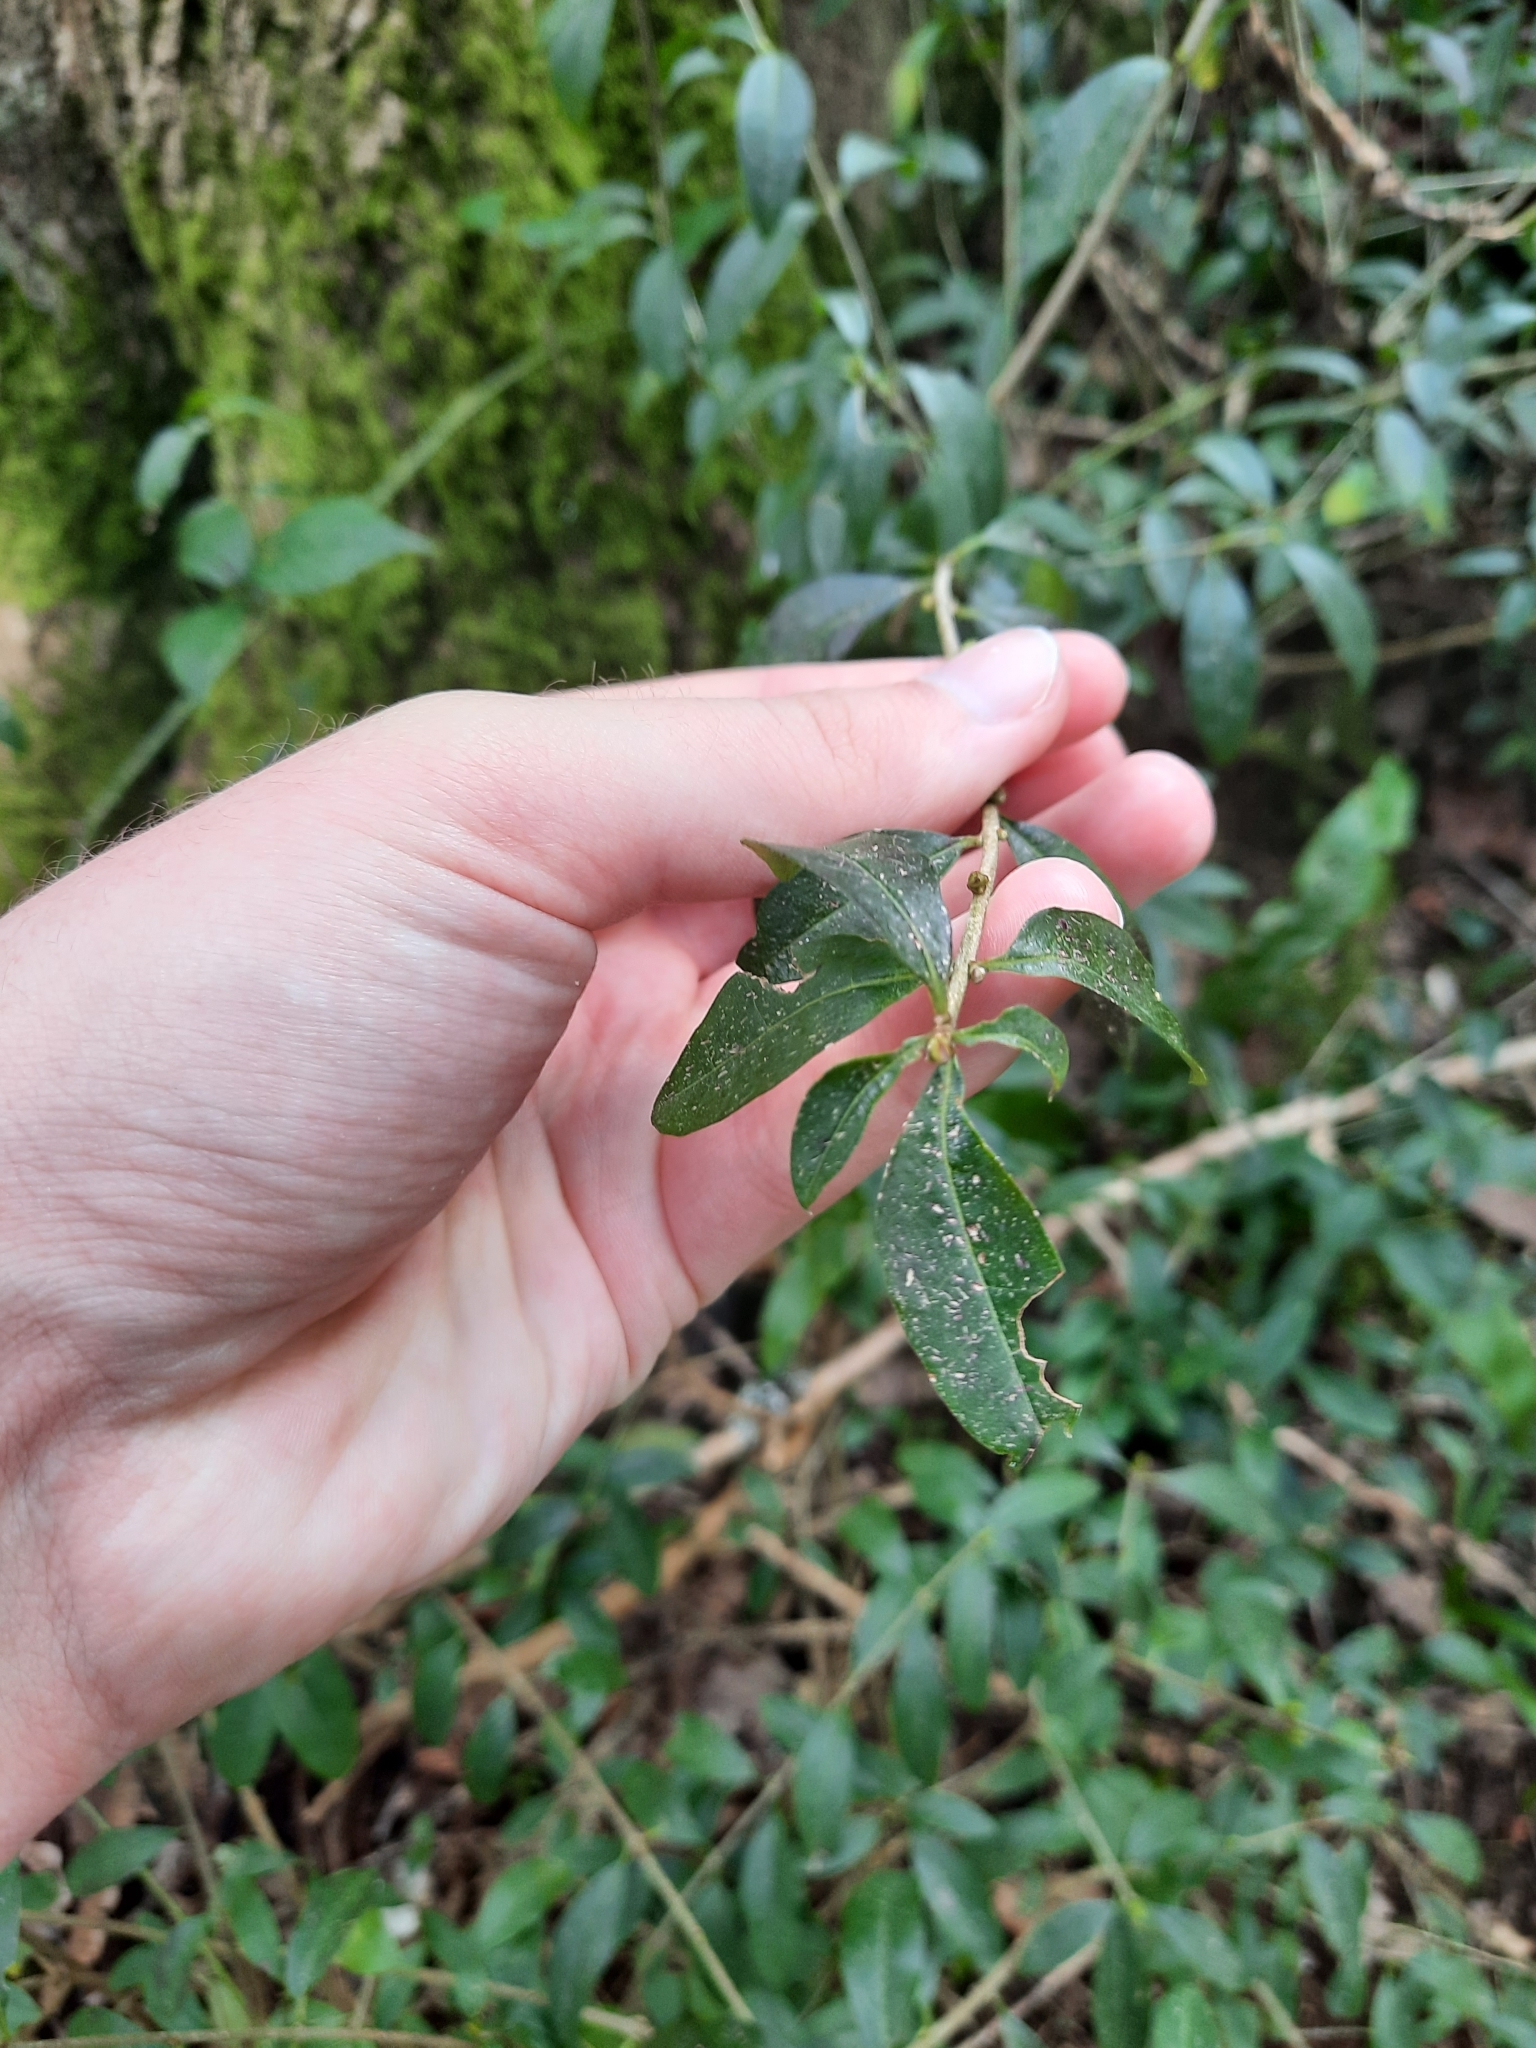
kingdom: Plantae
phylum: Tracheophyta
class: Magnoliopsida
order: Lamiales
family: Oleaceae
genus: Ligustrum
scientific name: Ligustrum vulgare
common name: Wild privet
